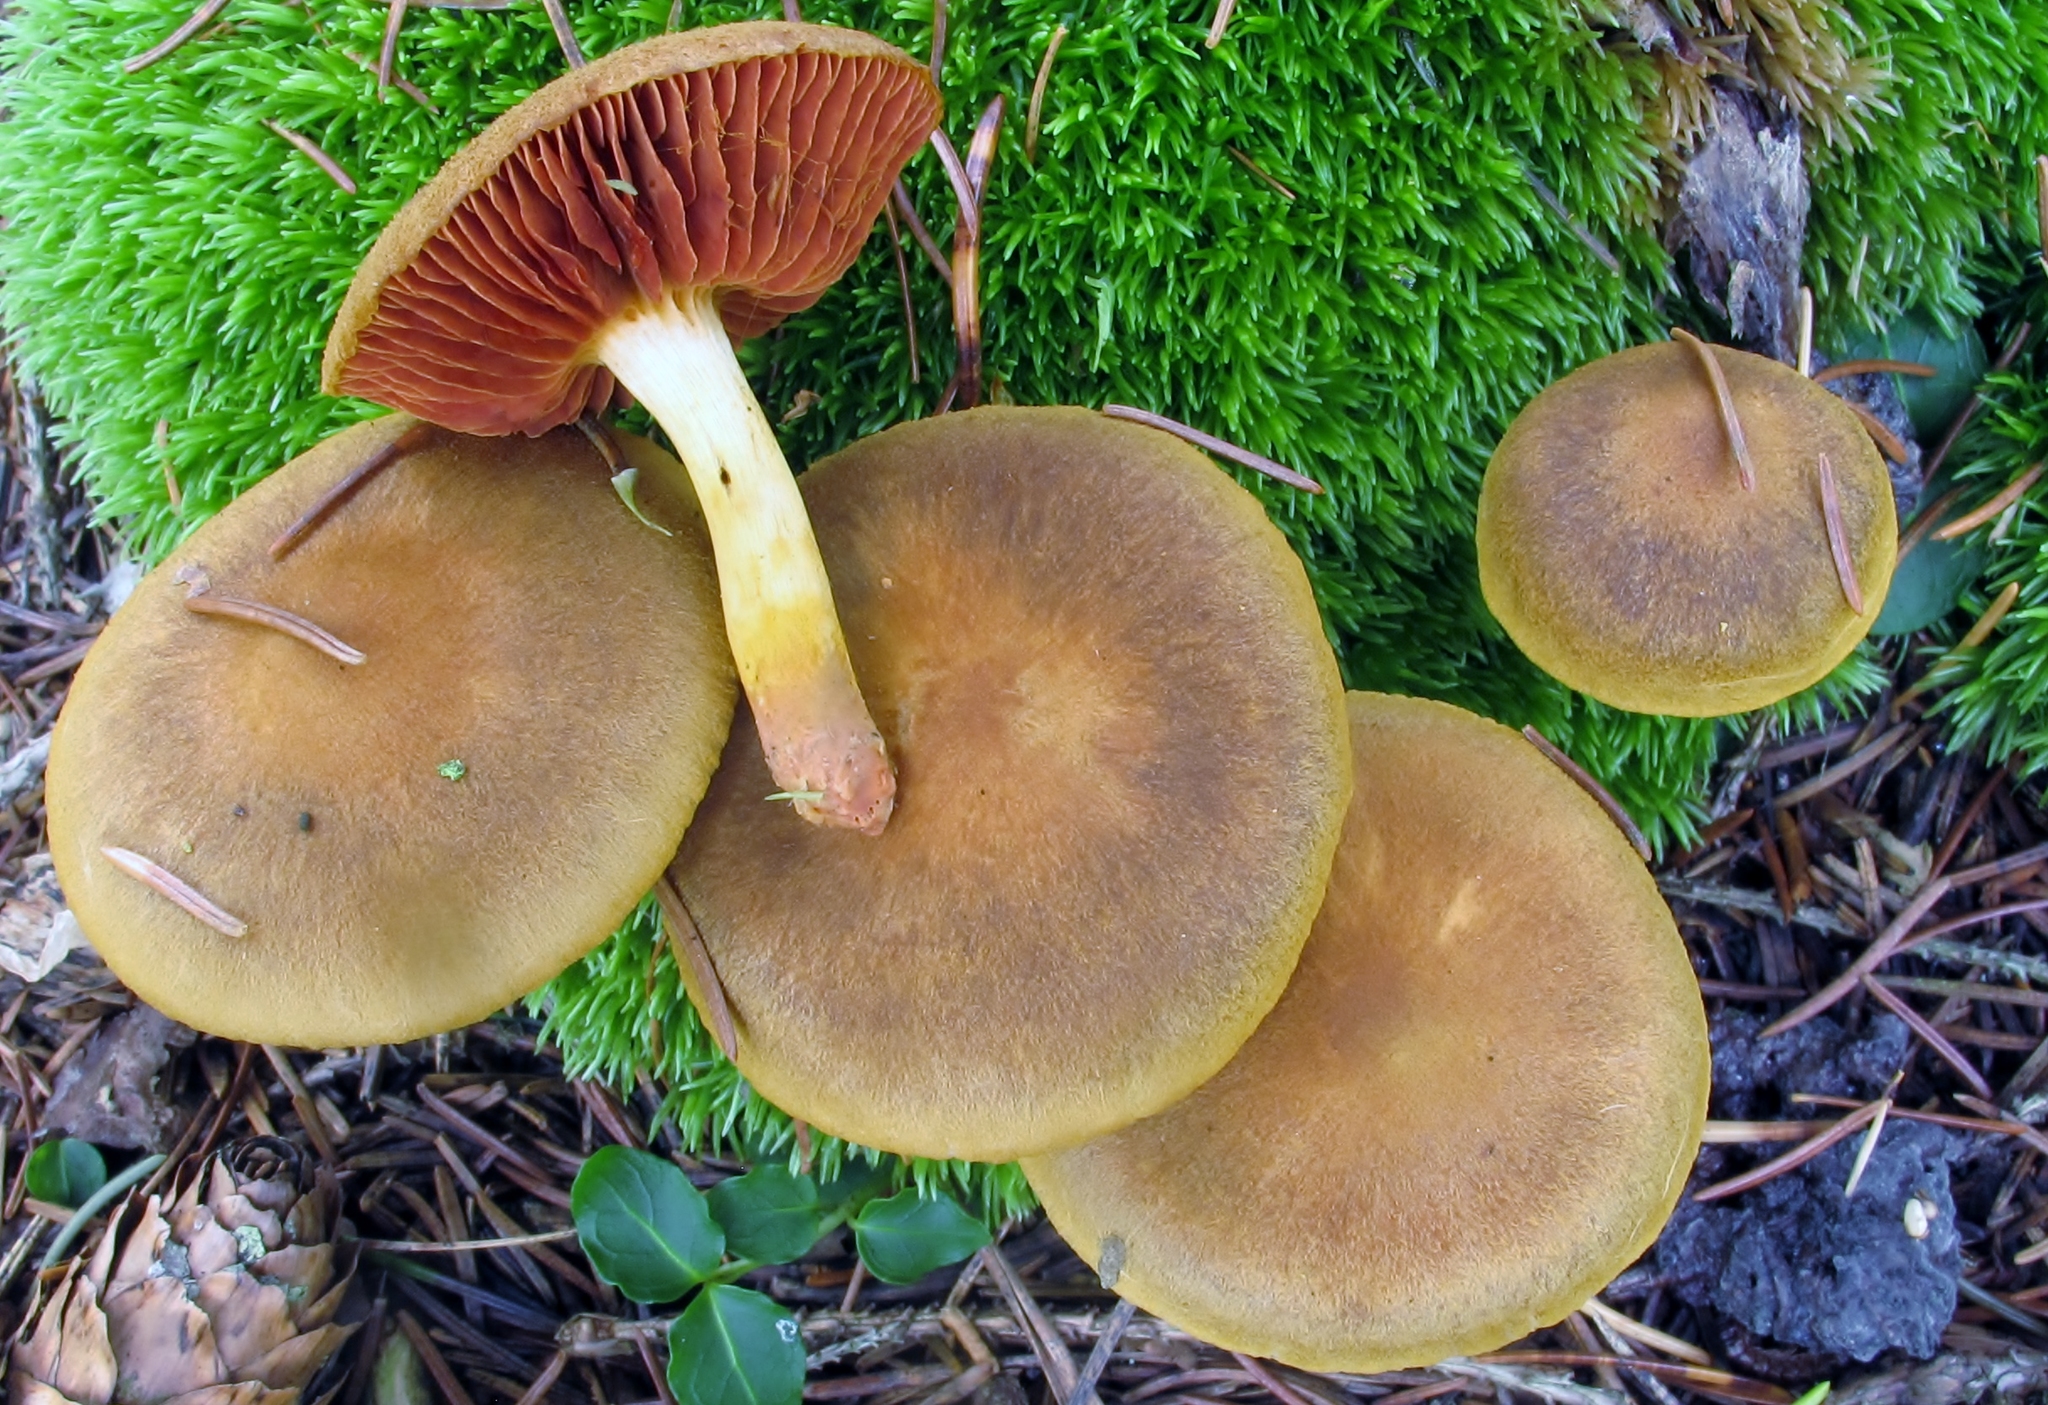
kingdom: Fungi
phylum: Basidiomycota
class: Agaricomycetes
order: Agaricales
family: Cortinariaceae
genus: Cortinarius
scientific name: Cortinarius semisanguineus
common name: Surprise webcap
